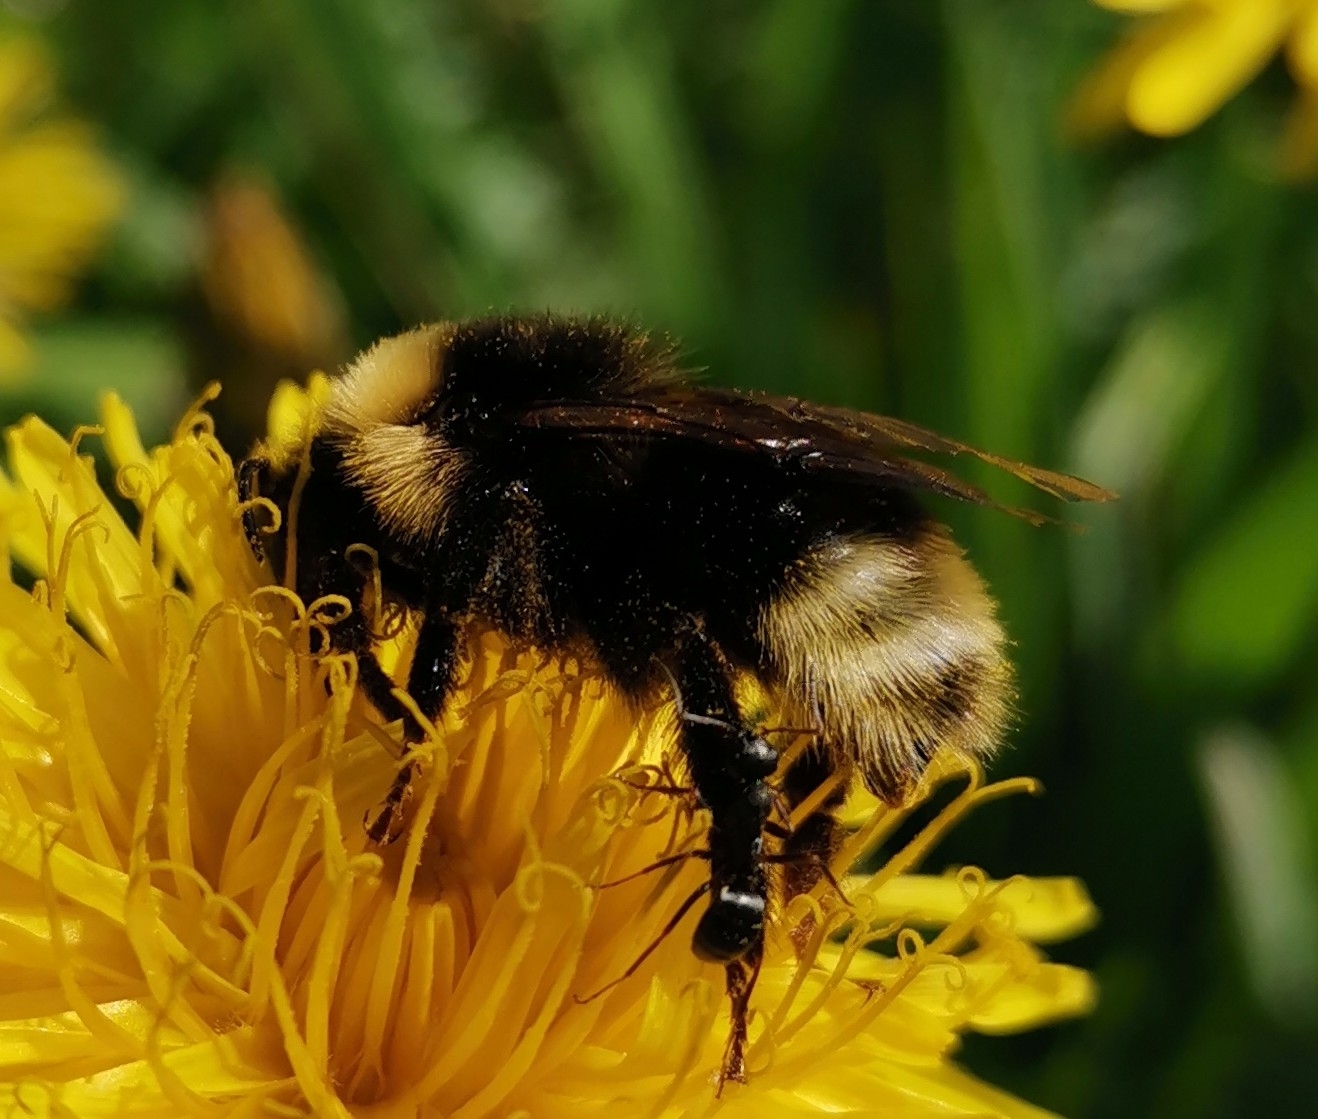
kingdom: Animalia
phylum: Arthropoda
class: Insecta
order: Hymenoptera
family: Apidae
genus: Bombus
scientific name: Bombus bohemicus
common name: Gypsy cuckoo bee
